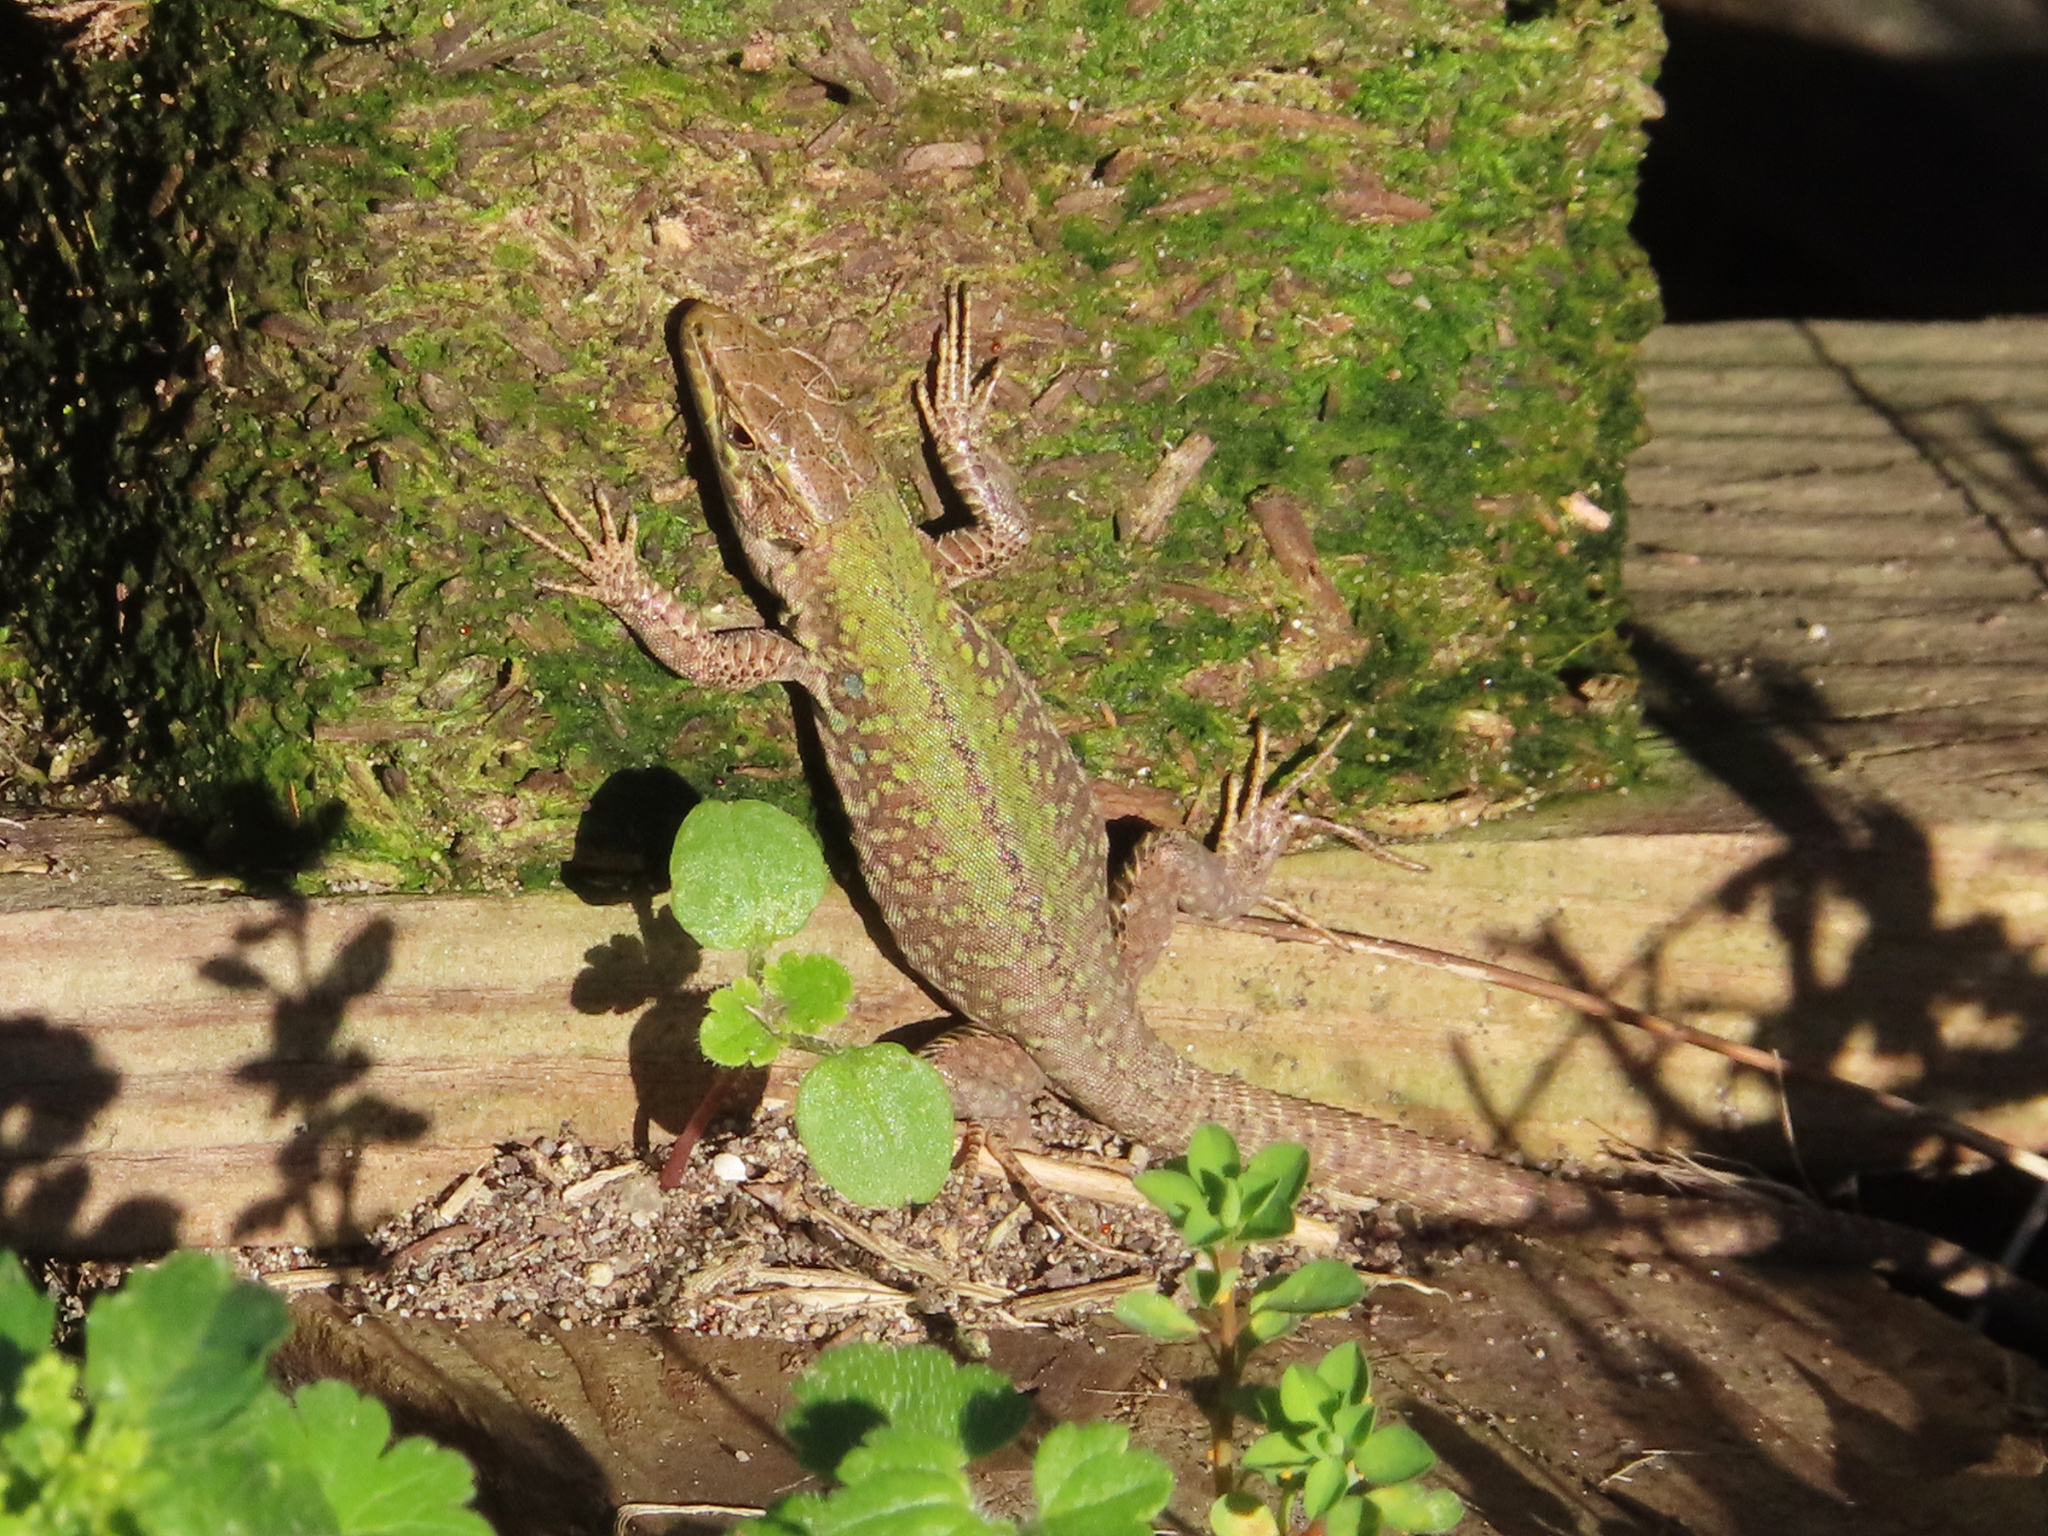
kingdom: Animalia
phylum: Chordata
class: Squamata
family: Lacertidae
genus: Podarcis
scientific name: Podarcis siculus
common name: Italian wall lizard
